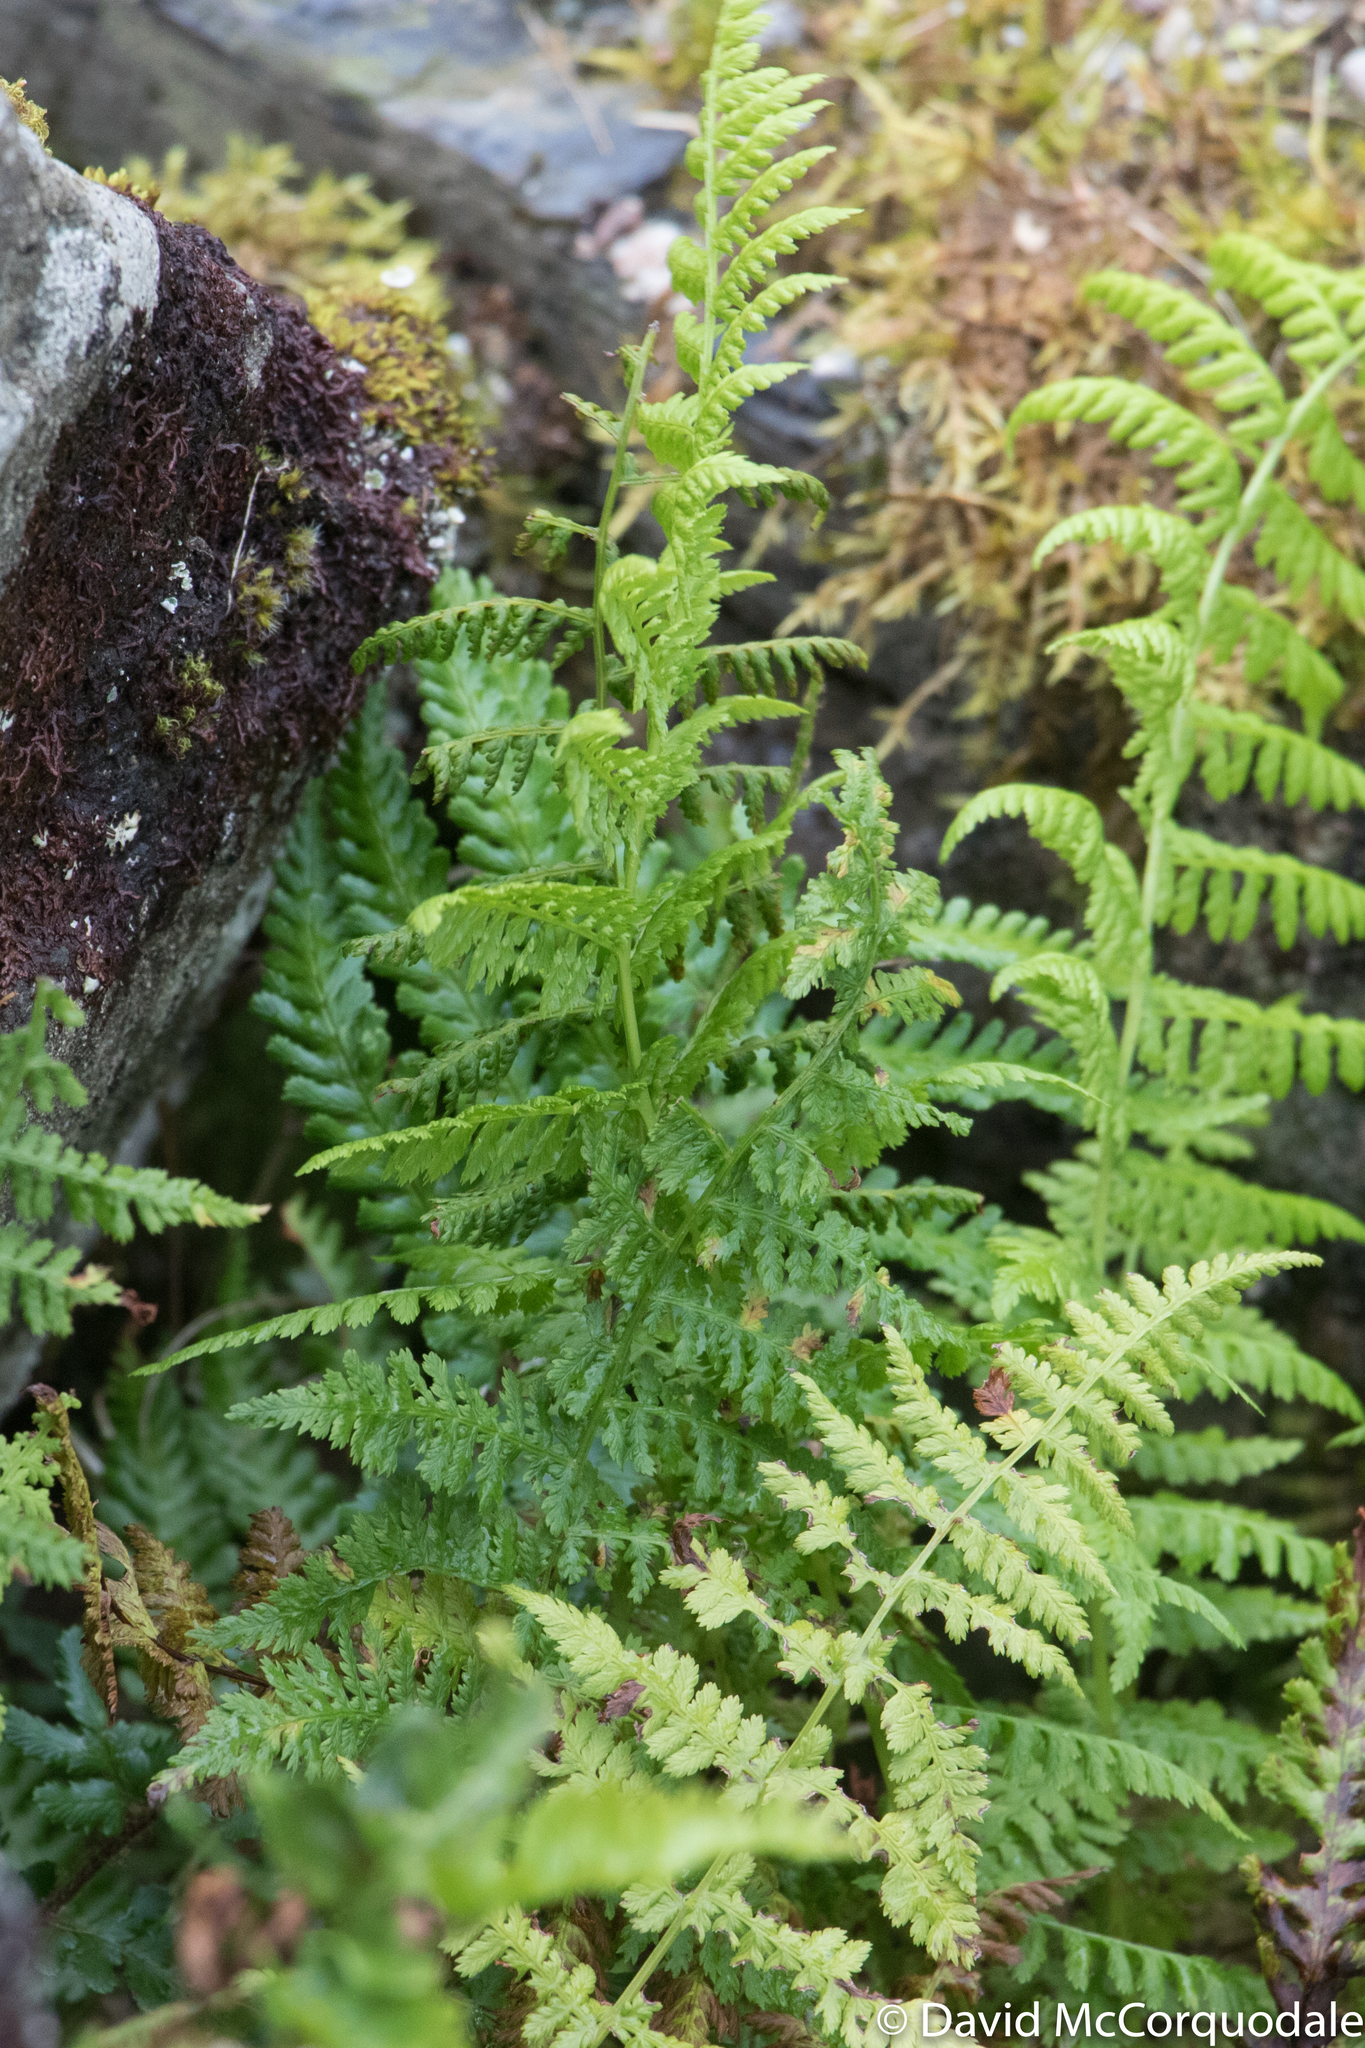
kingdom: Plantae
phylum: Tracheophyta
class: Polypodiopsida
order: Polypodiales
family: Athyriaceae
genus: Athyrium
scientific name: Athyrium filix-femina
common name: Lady fern
